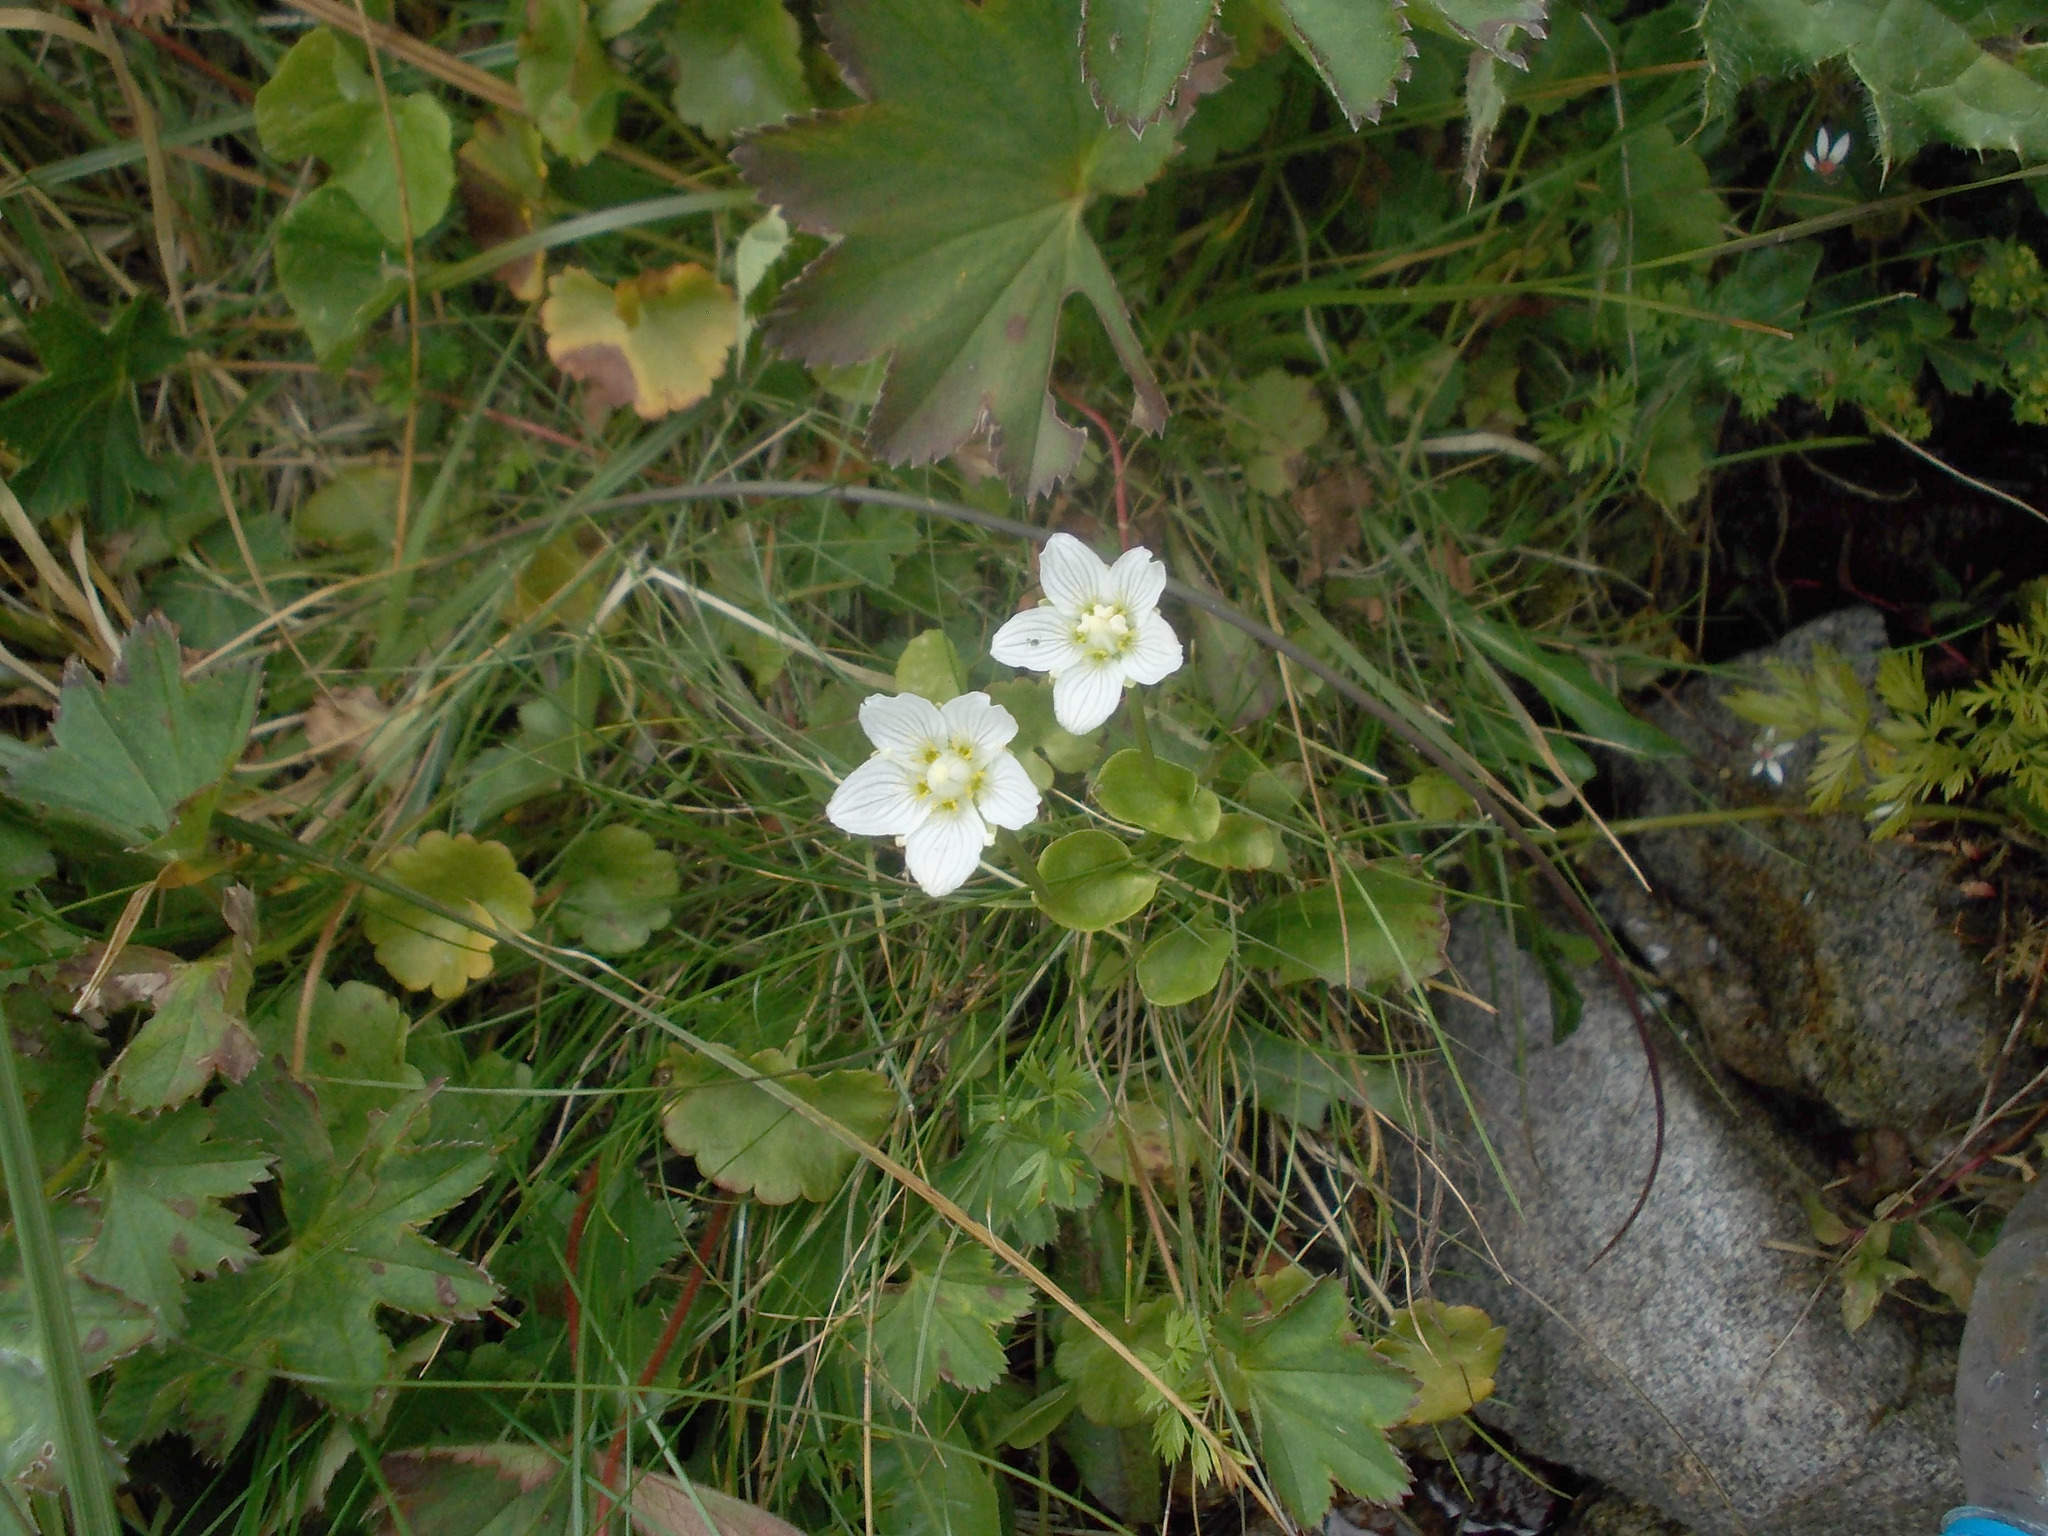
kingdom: Plantae
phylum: Tracheophyta
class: Magnoliopsida
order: Celastrales
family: Parnassiaceae
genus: Parnassia
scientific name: Parnassia palustris
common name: Grass-of-parnassus
